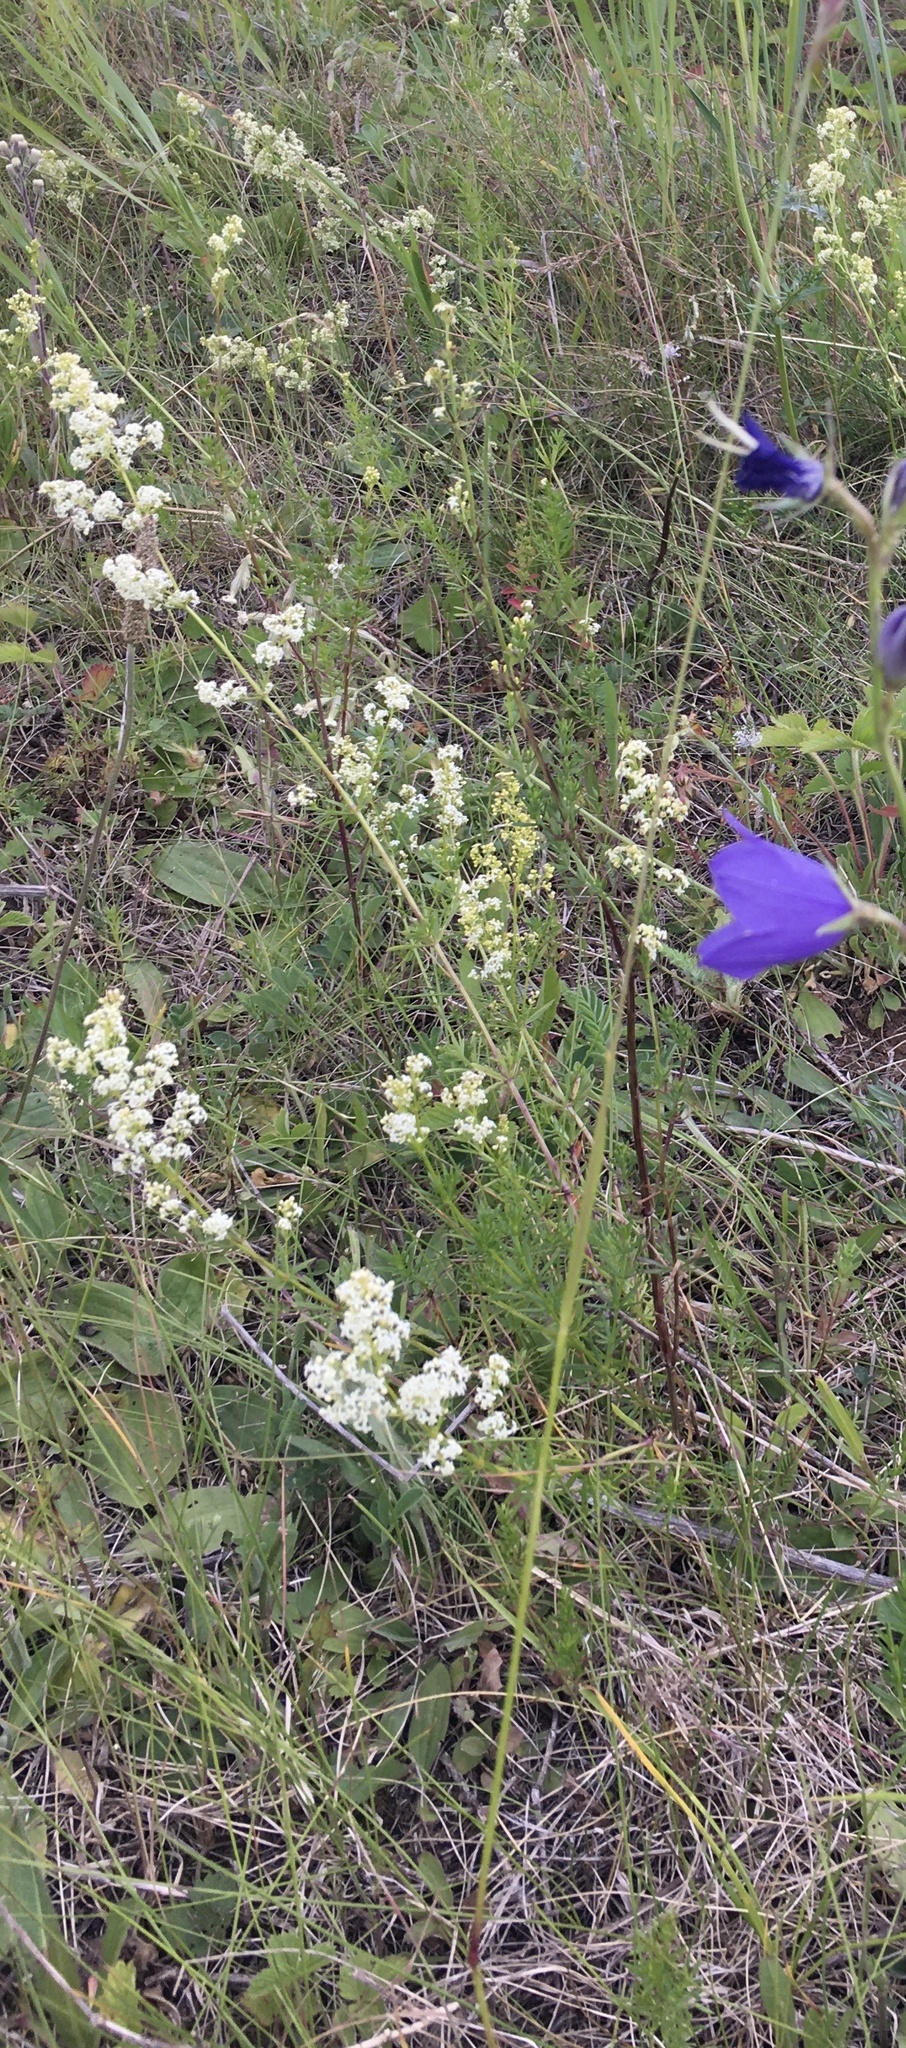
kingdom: Plantae
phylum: Tracheophyta
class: Magnoliopsida
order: Gentianales
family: Rubiaceae
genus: Galium
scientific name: Galium mollugo
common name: Hedge bedstraw
